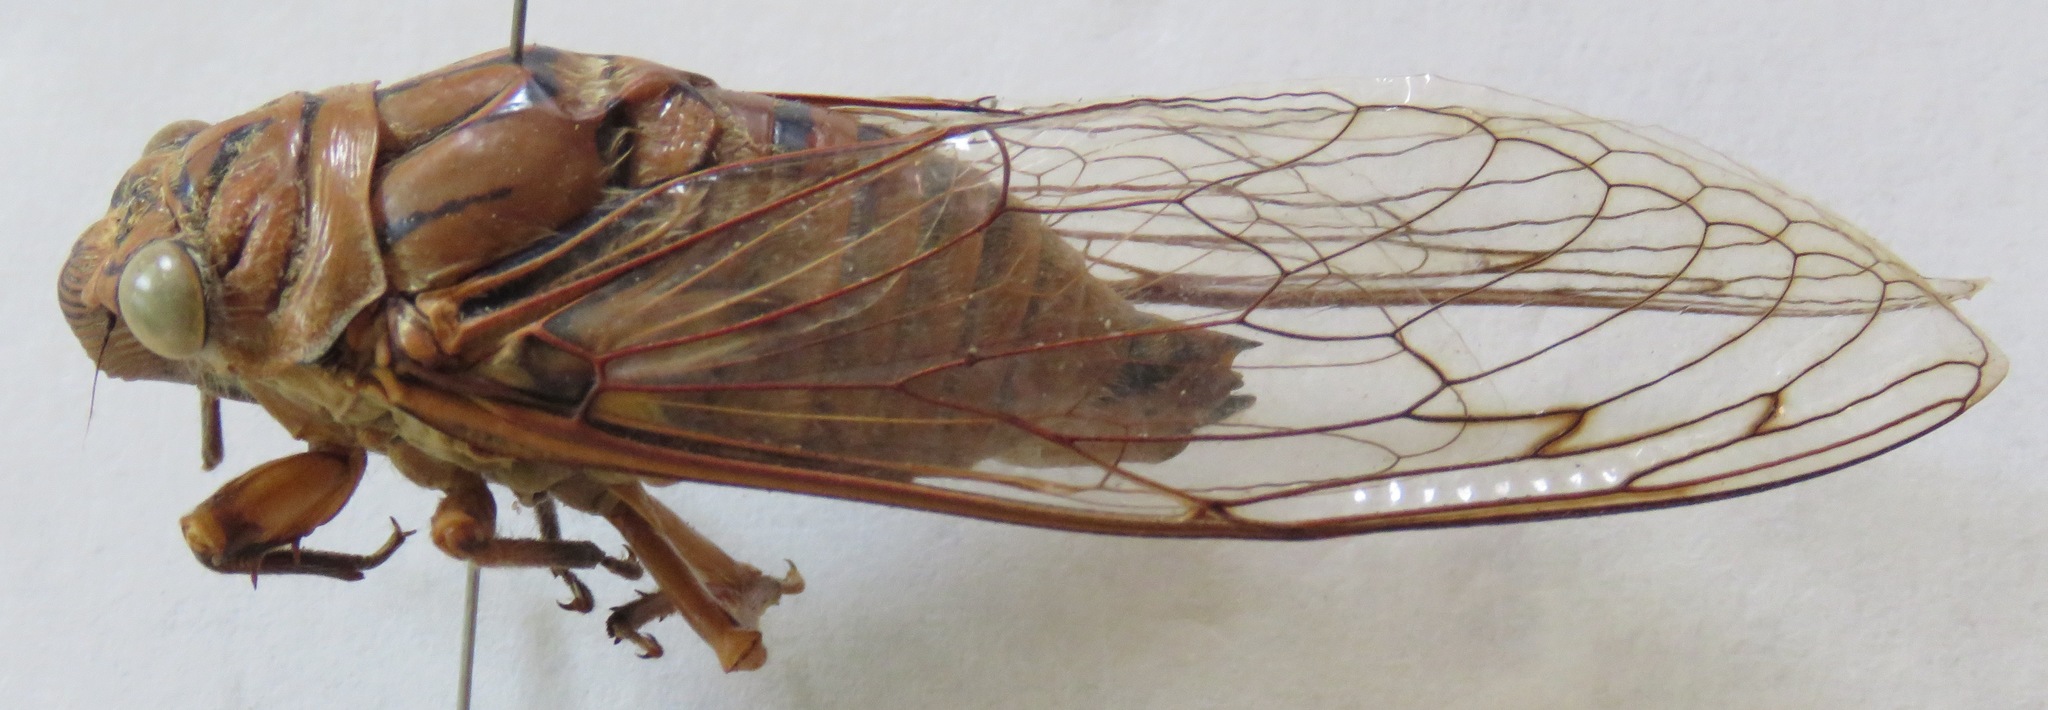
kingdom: Animalia
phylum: Arthropoda
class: Insecta
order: Hemiptera
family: Cicadidae
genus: Quesada
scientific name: Quesada gigas
